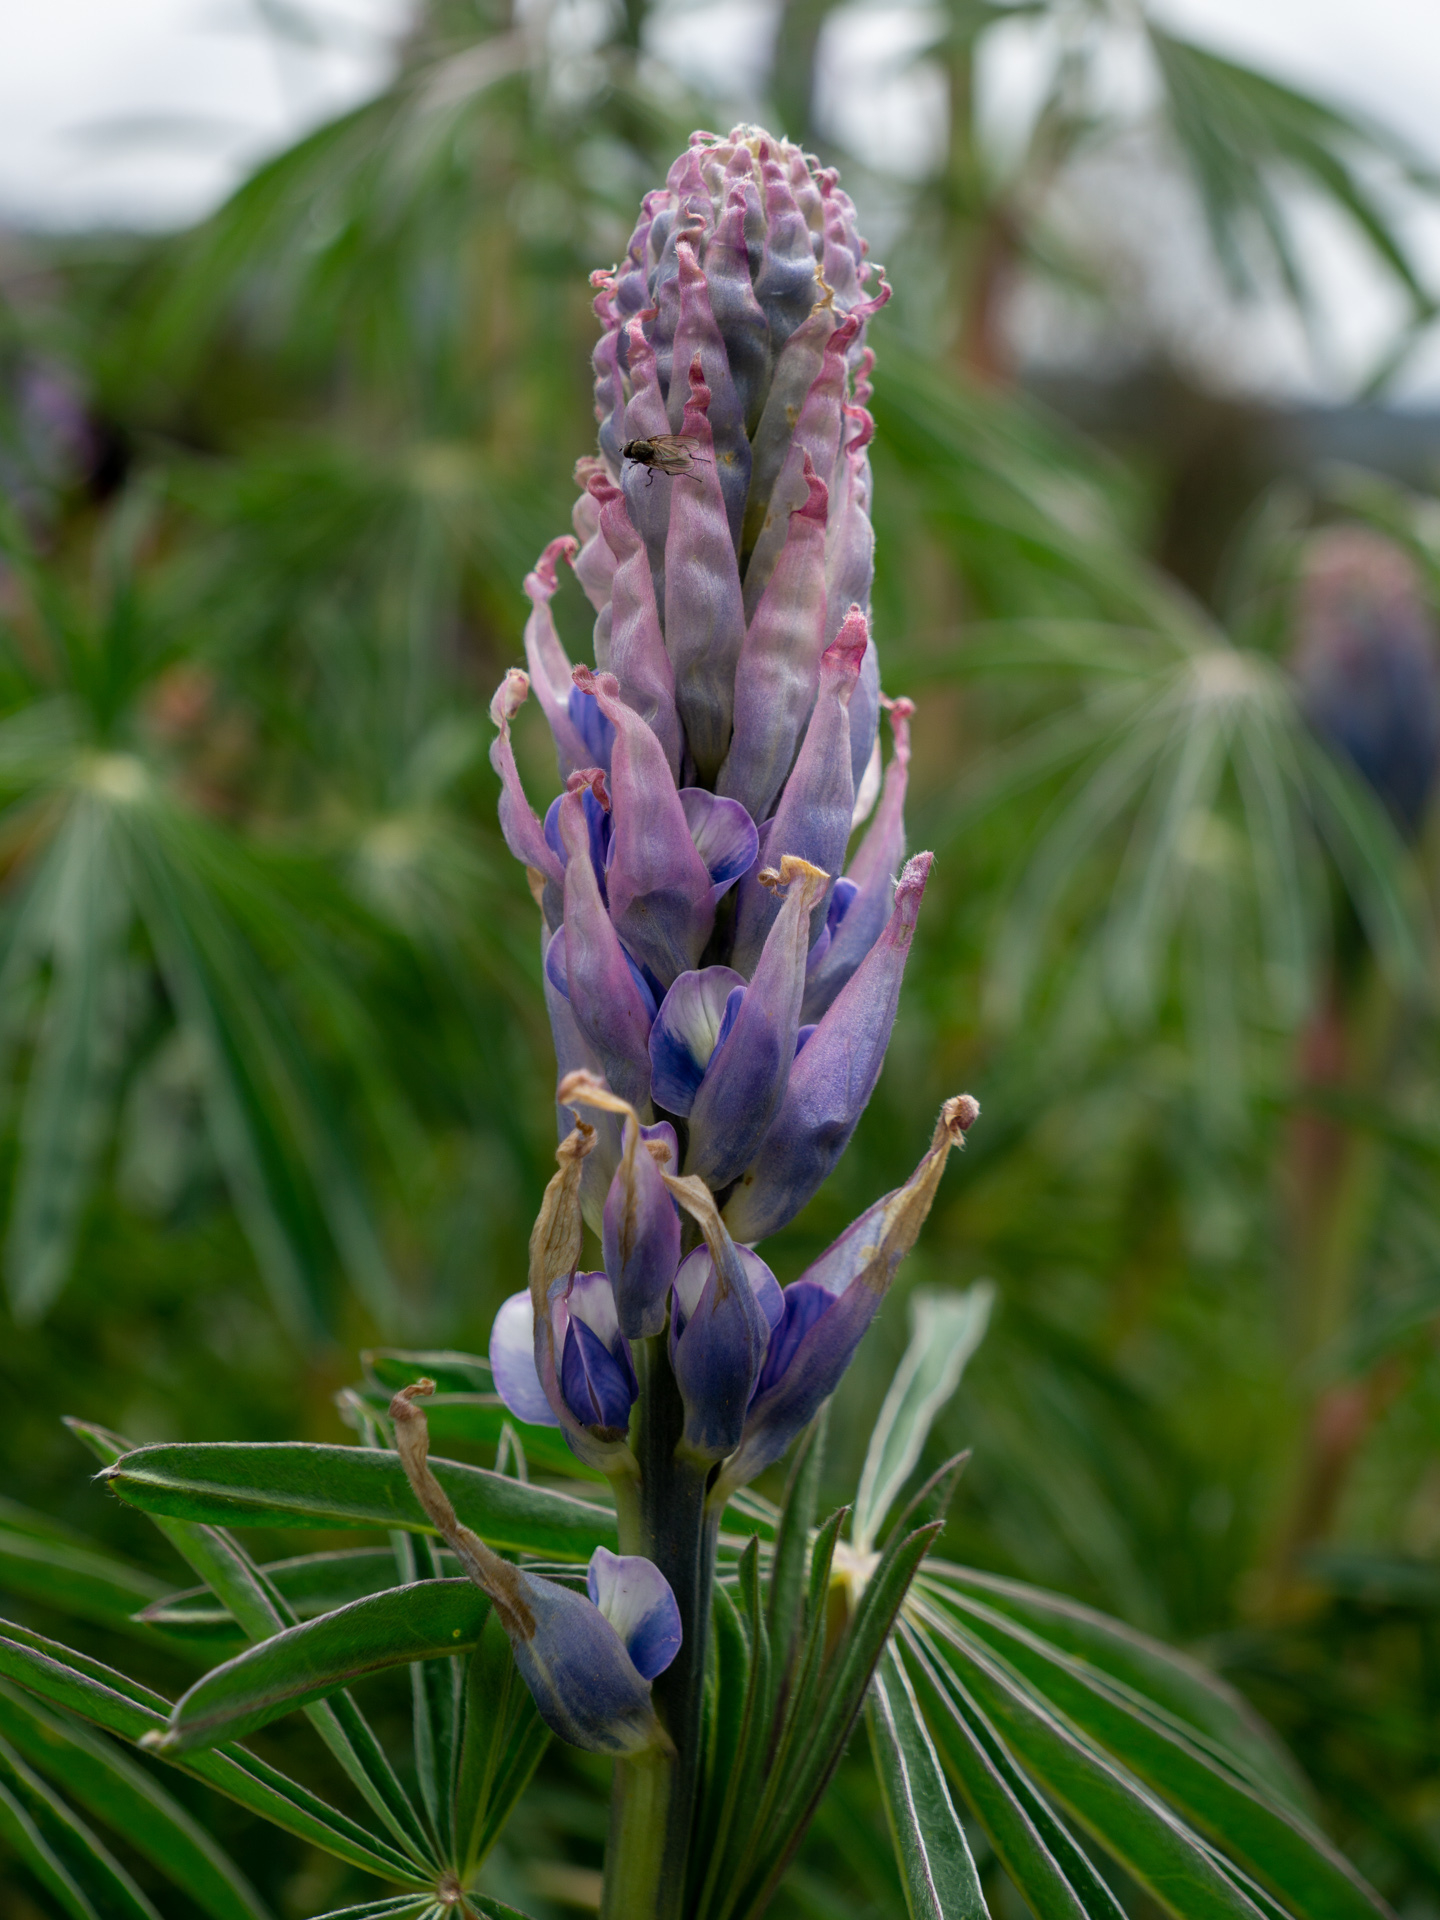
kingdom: Plantae
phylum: Tracheophyta
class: Magnoliopsida
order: Fabales
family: Fabaceae
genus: Lupinus
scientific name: Lupinus
